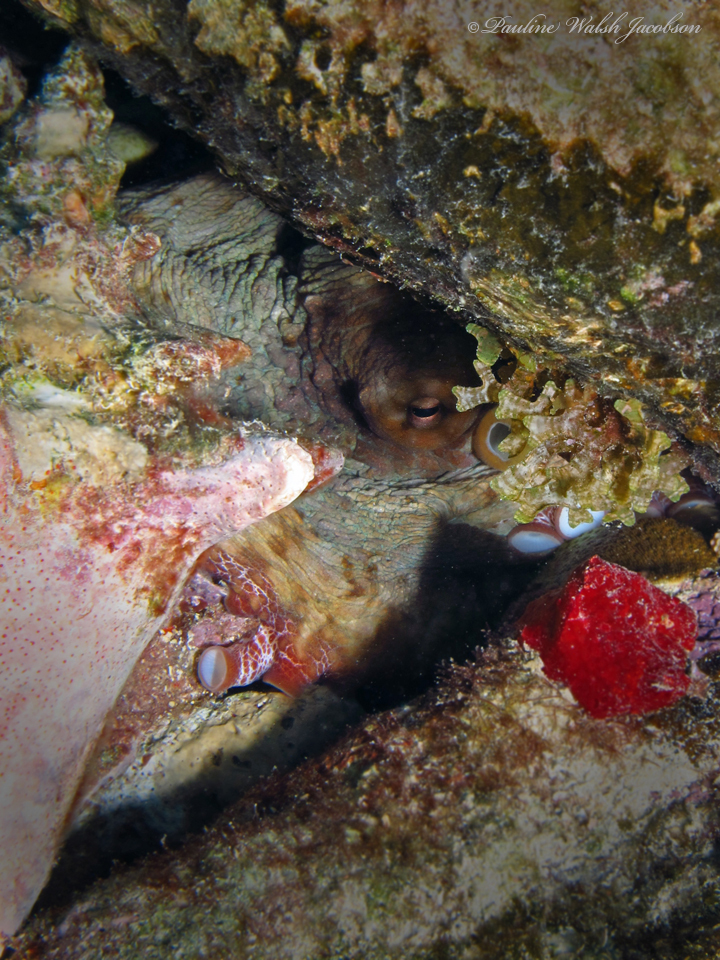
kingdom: Animalia
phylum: Mollusca
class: Cephalopoda
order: Octopoda
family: Octopodidae
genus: Octopus
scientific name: Octopus insularis
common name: Brazil reef octopus
